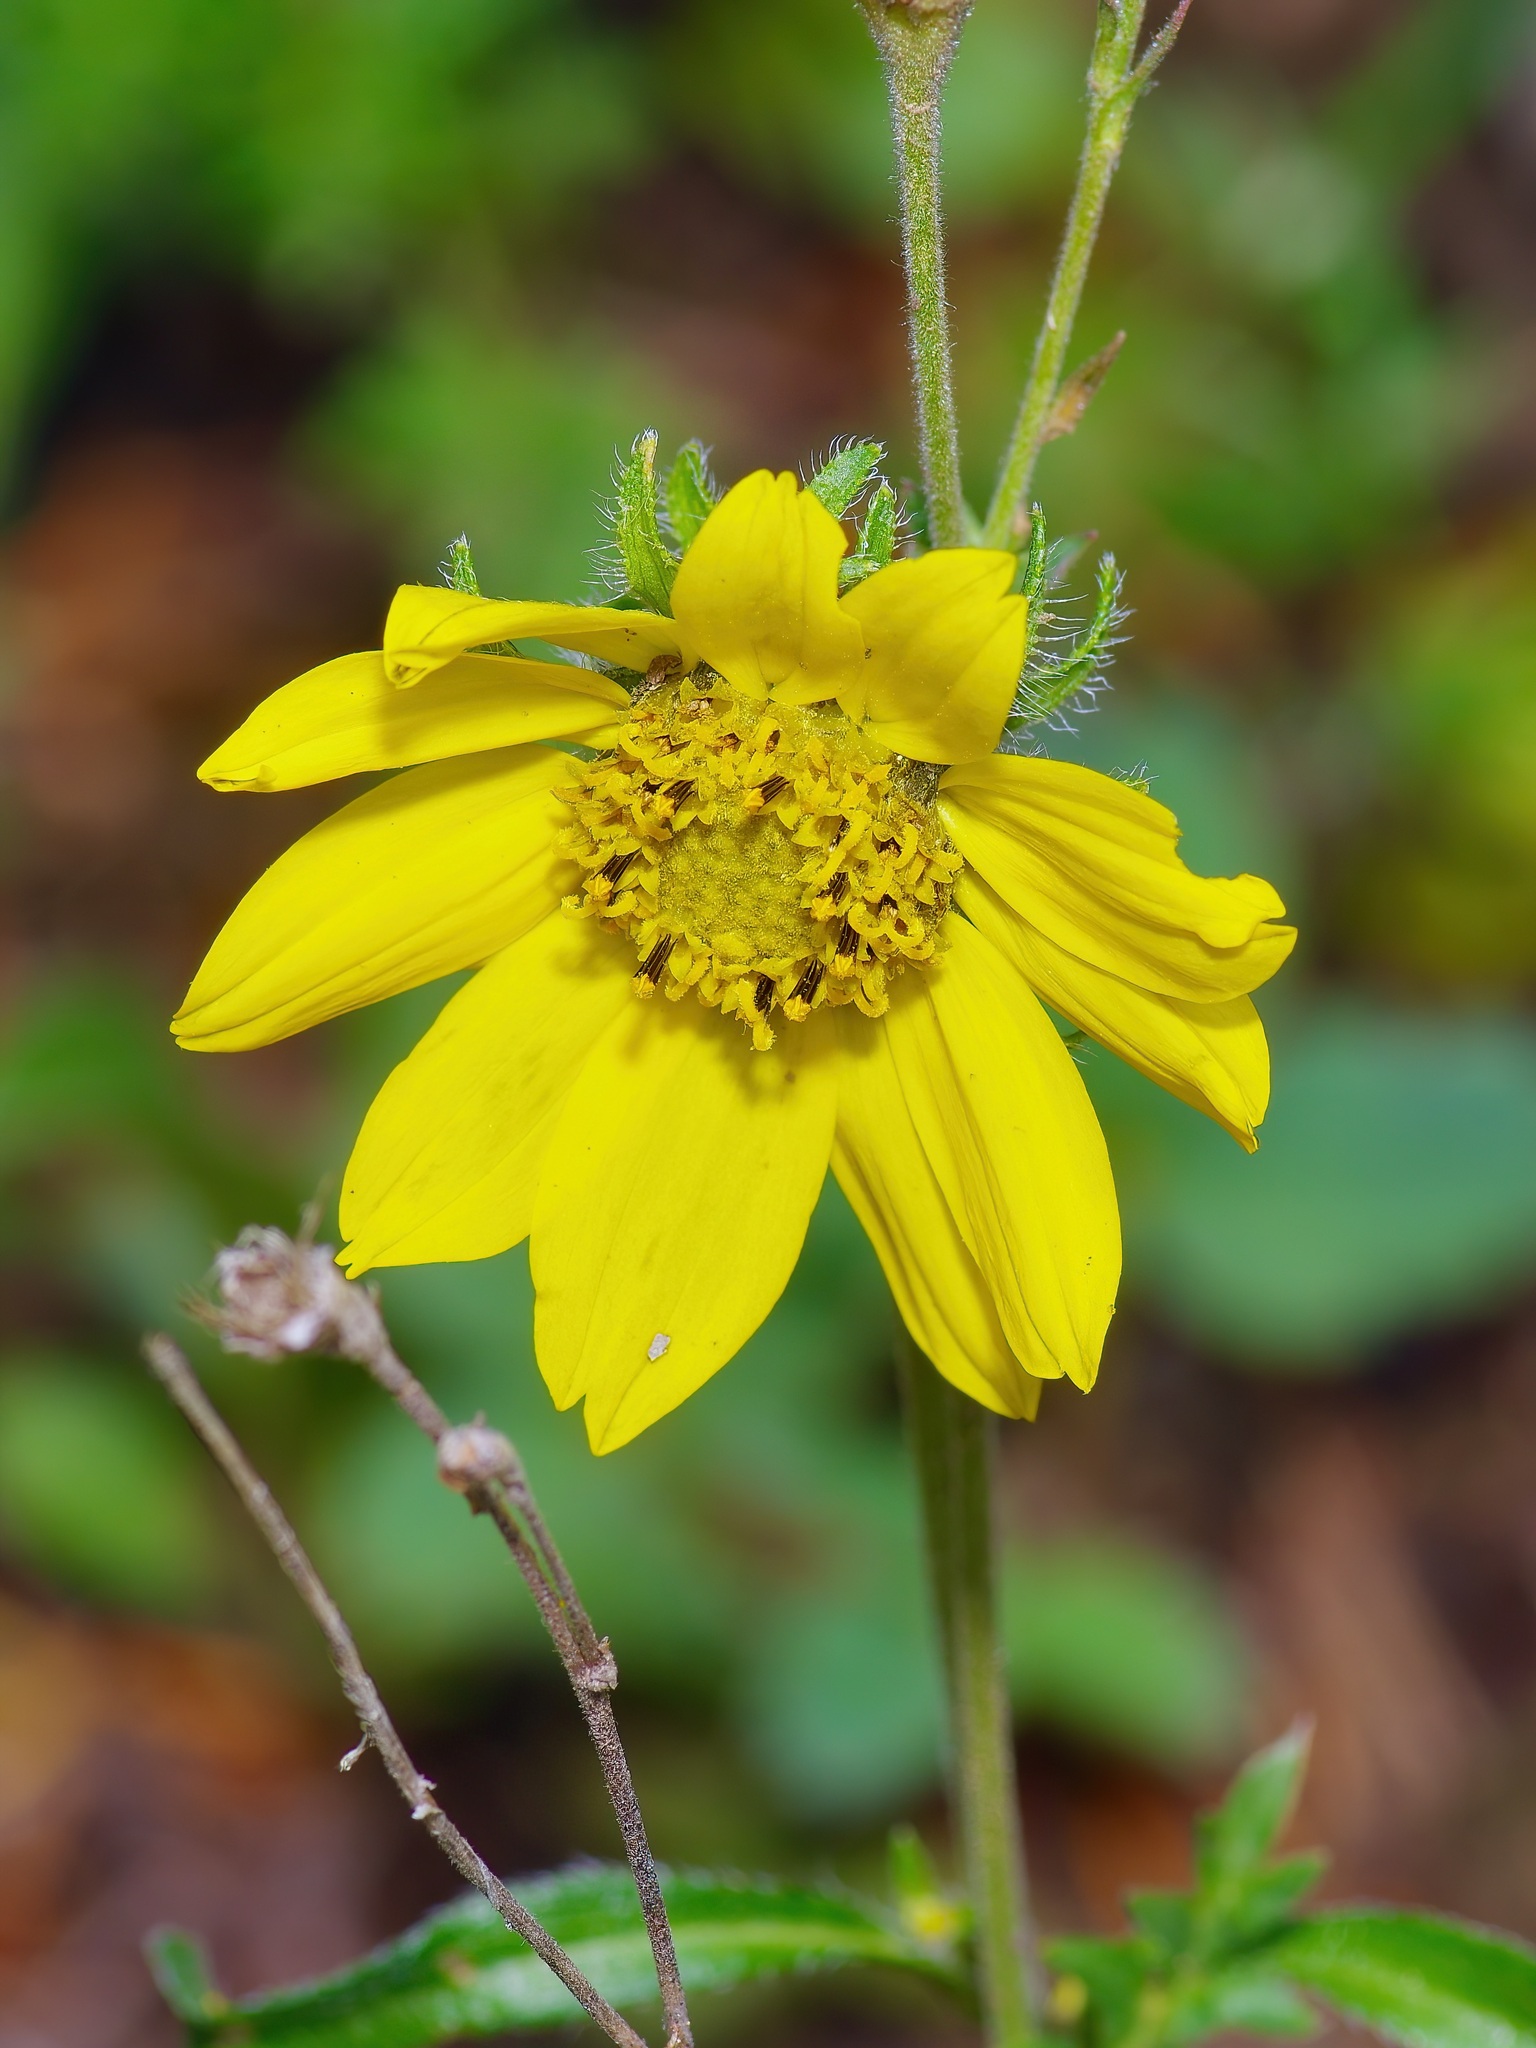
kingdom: Plantae
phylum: Tracheophyta
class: Magnoliopsida
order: Asterales
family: Asteraceae
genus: Helianthella
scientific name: Helianthella quinquenervis
